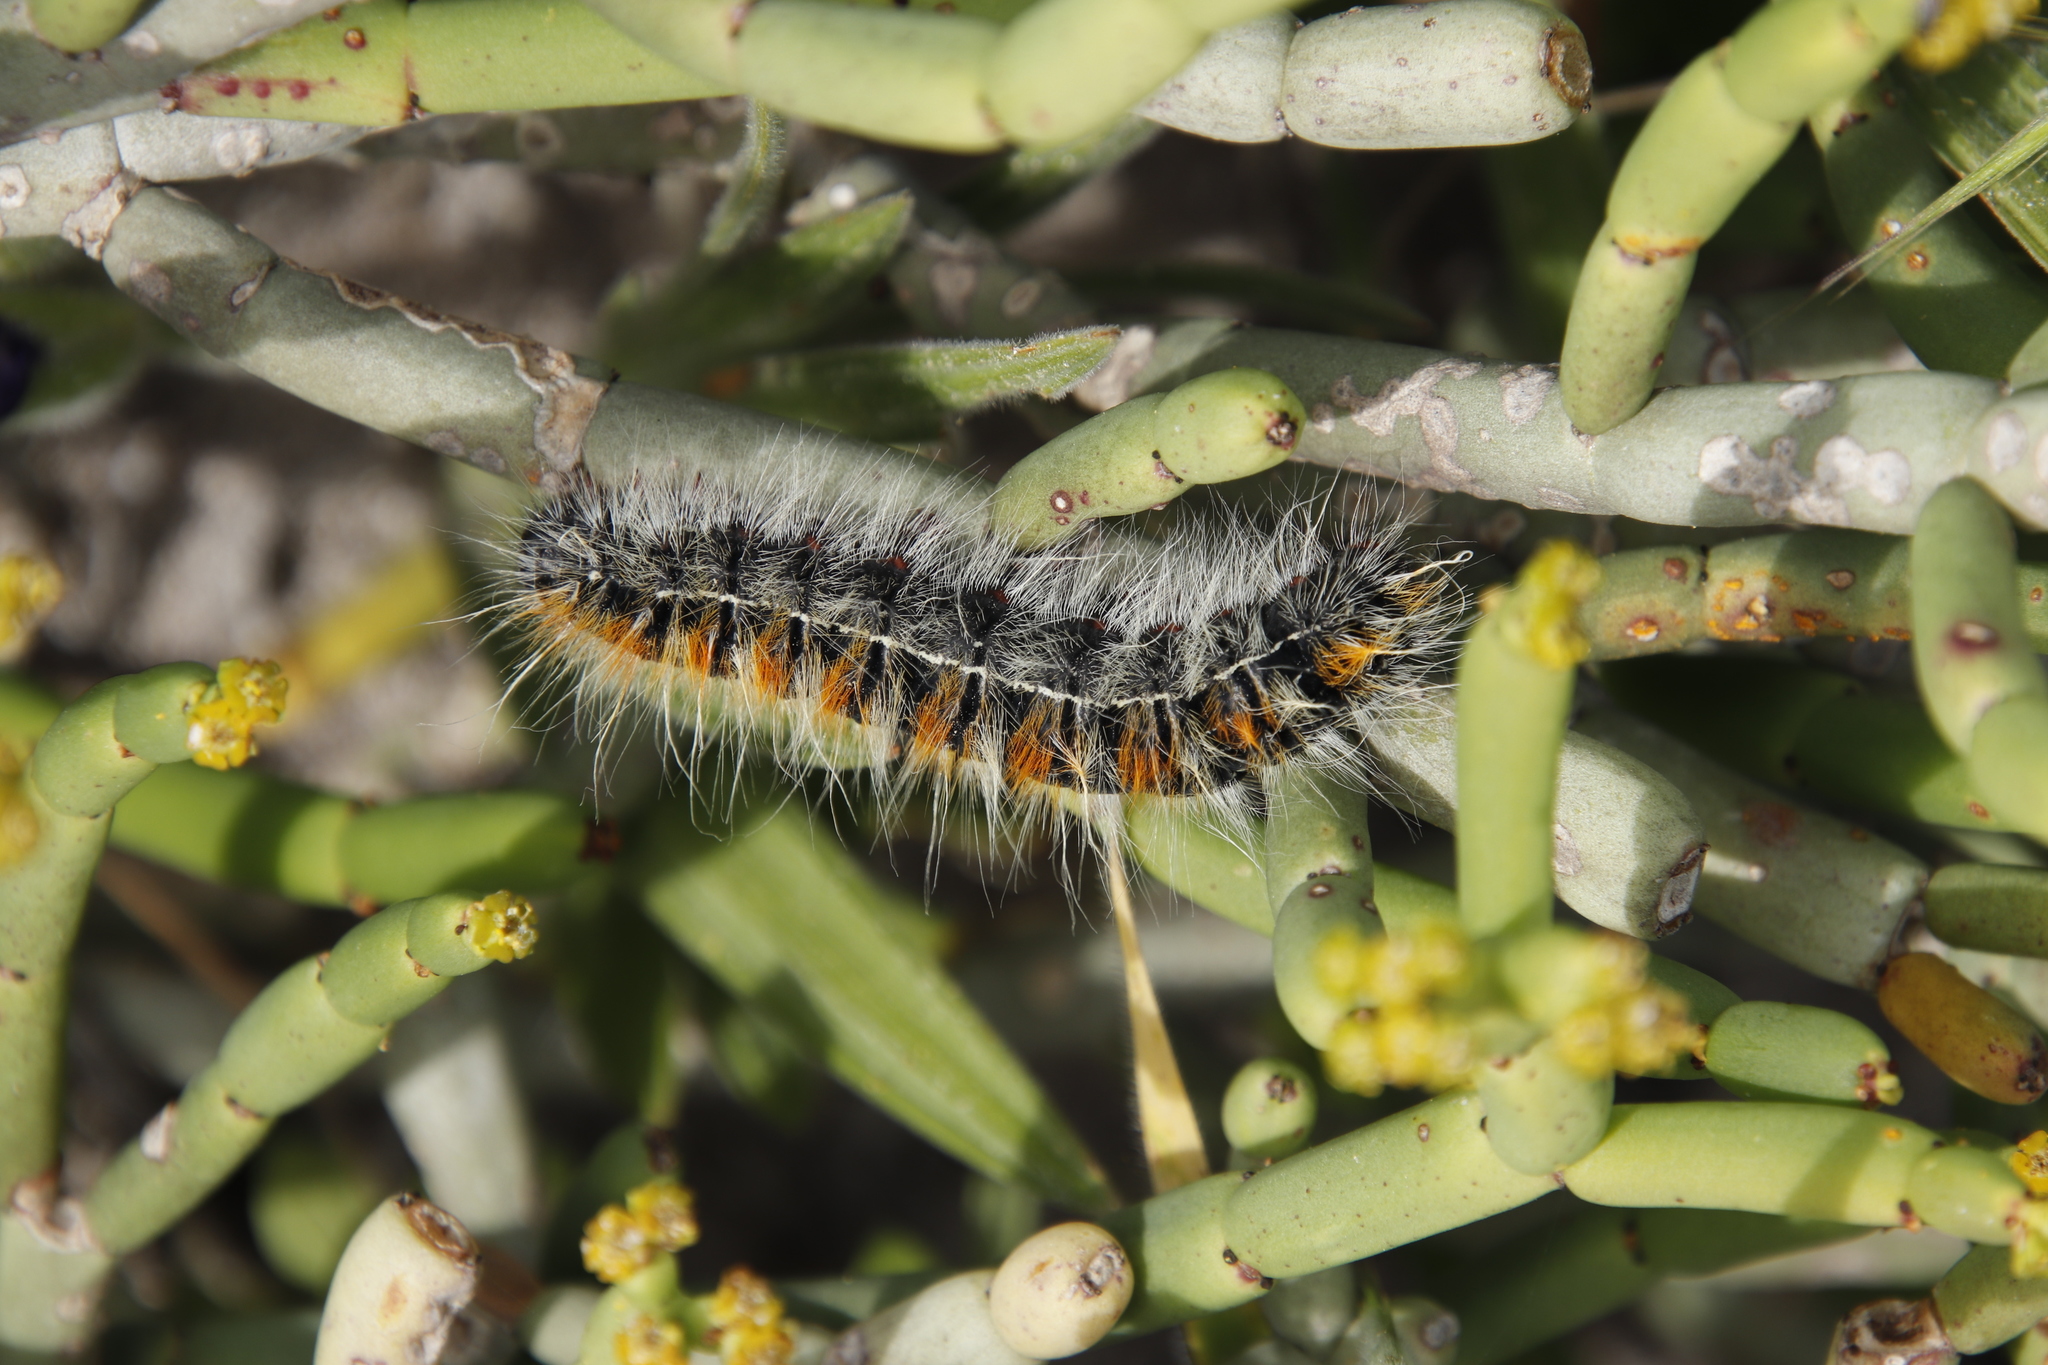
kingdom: Animalia
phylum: Arthropoda
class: Insecta
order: Lepidoptera
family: Lasiocampidae
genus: Bombycomorpha
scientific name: Bombycomorpha bifascia
